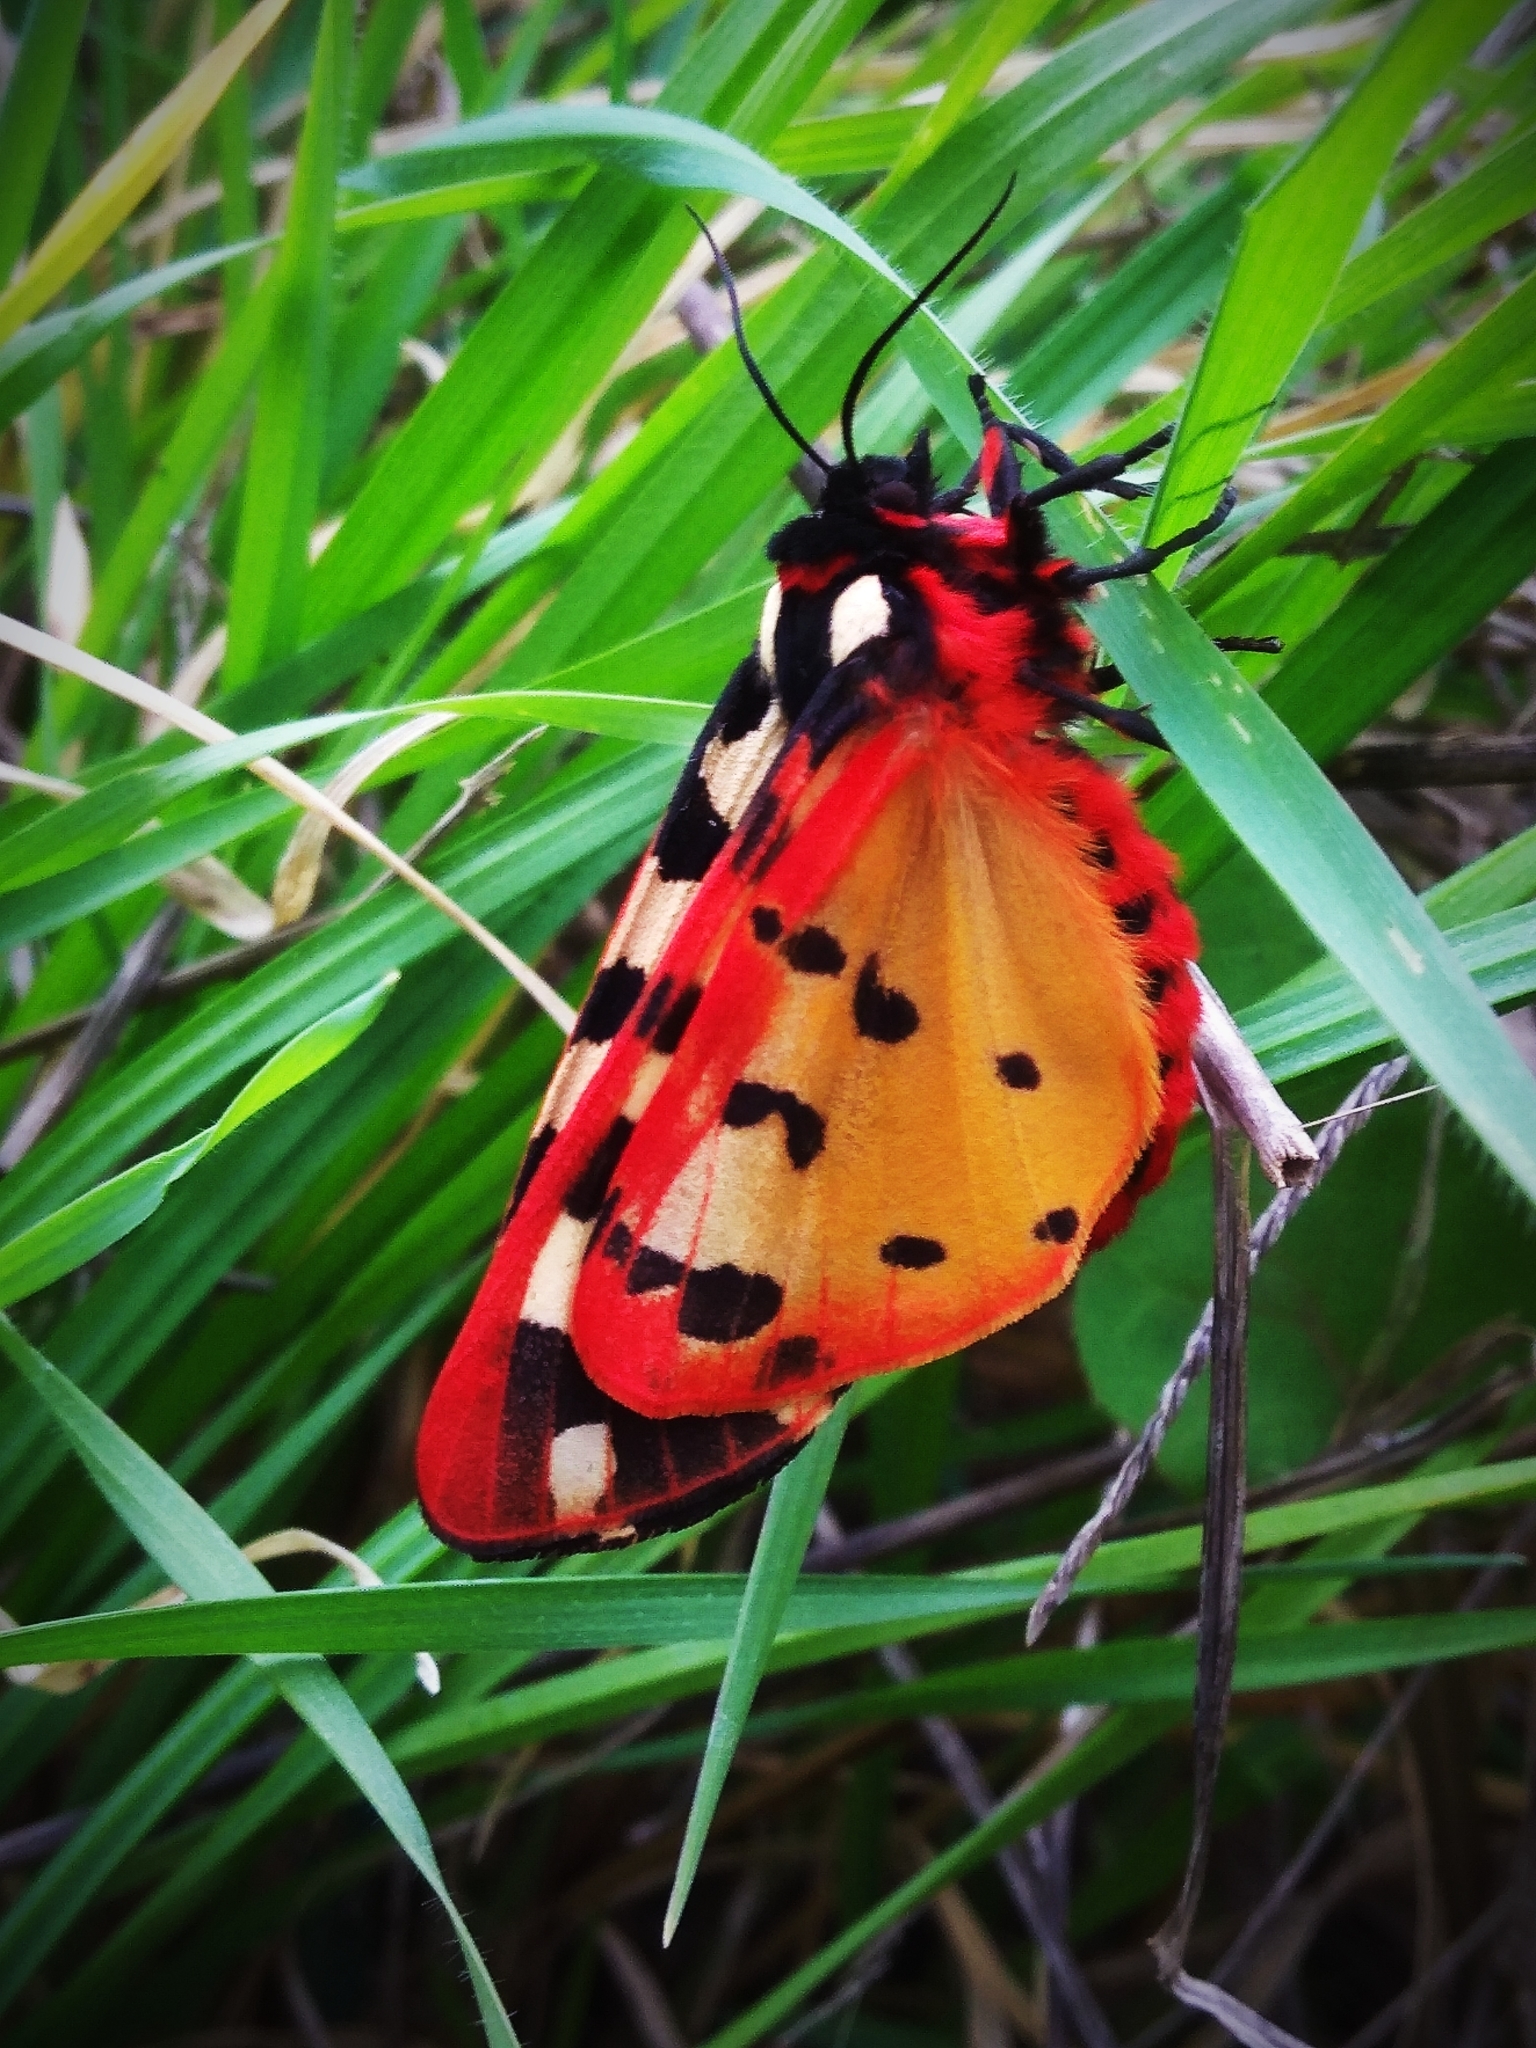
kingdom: Animalia
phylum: Arthropoda
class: Insecta
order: Lepidoptera
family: Erebidae
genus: Epicallia
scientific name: Epicallia villica
